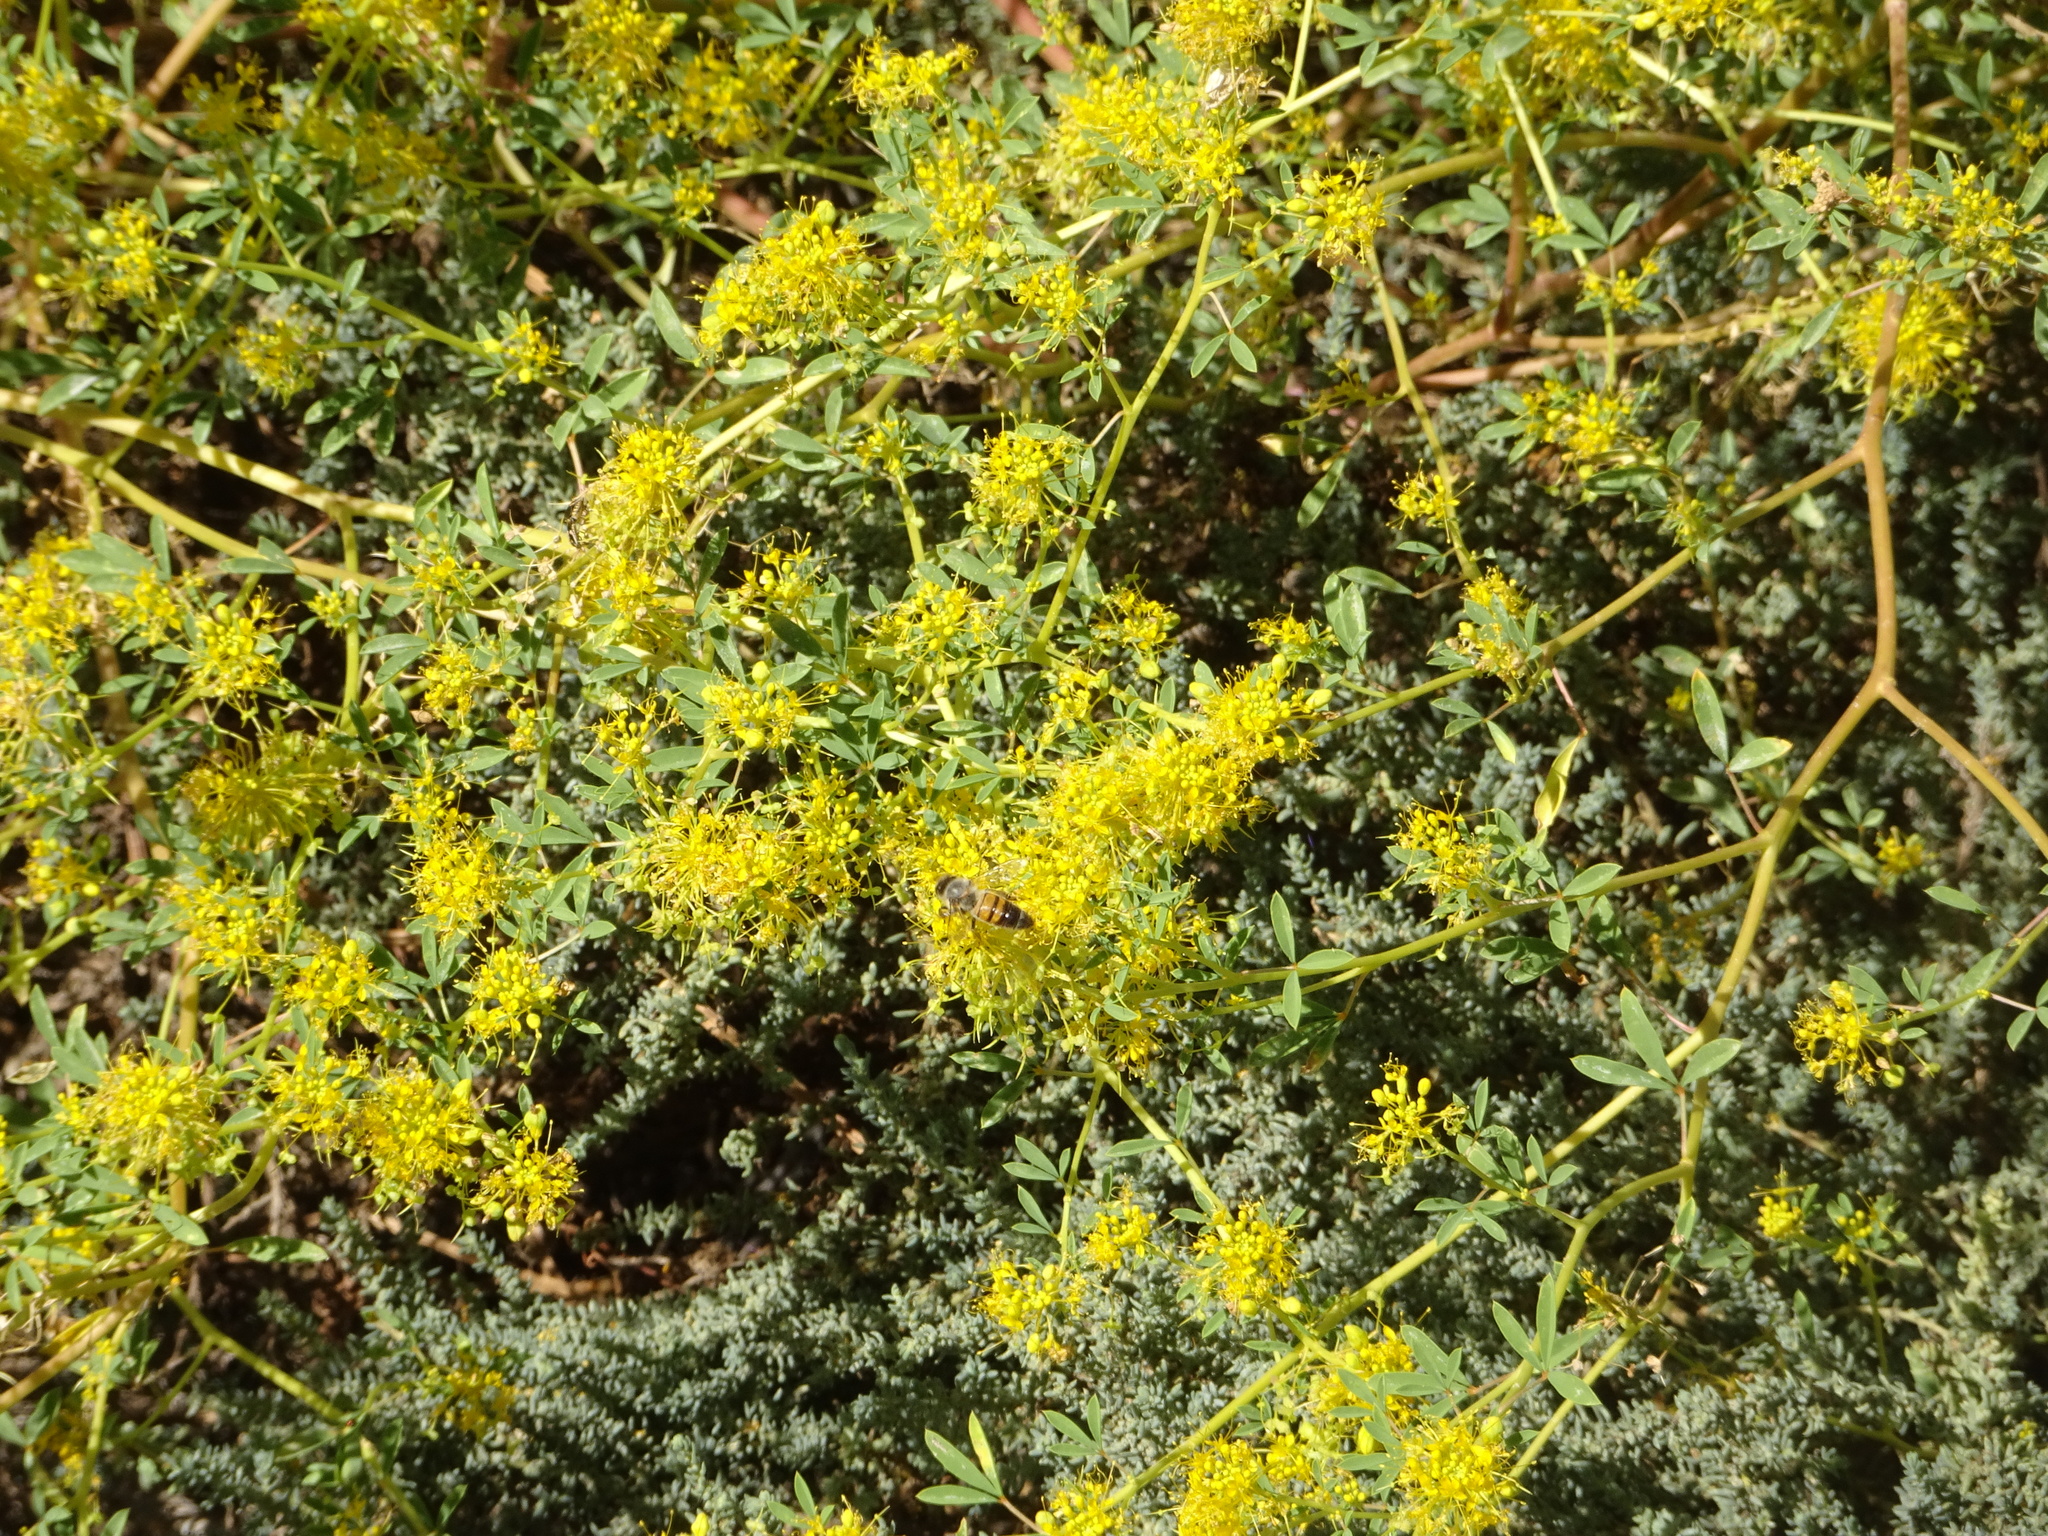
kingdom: Animalia
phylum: Arthropoda
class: Insecta
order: Hymenoptera
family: Apidae
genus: Apis
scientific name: Apis mellifera
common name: Honey bee
